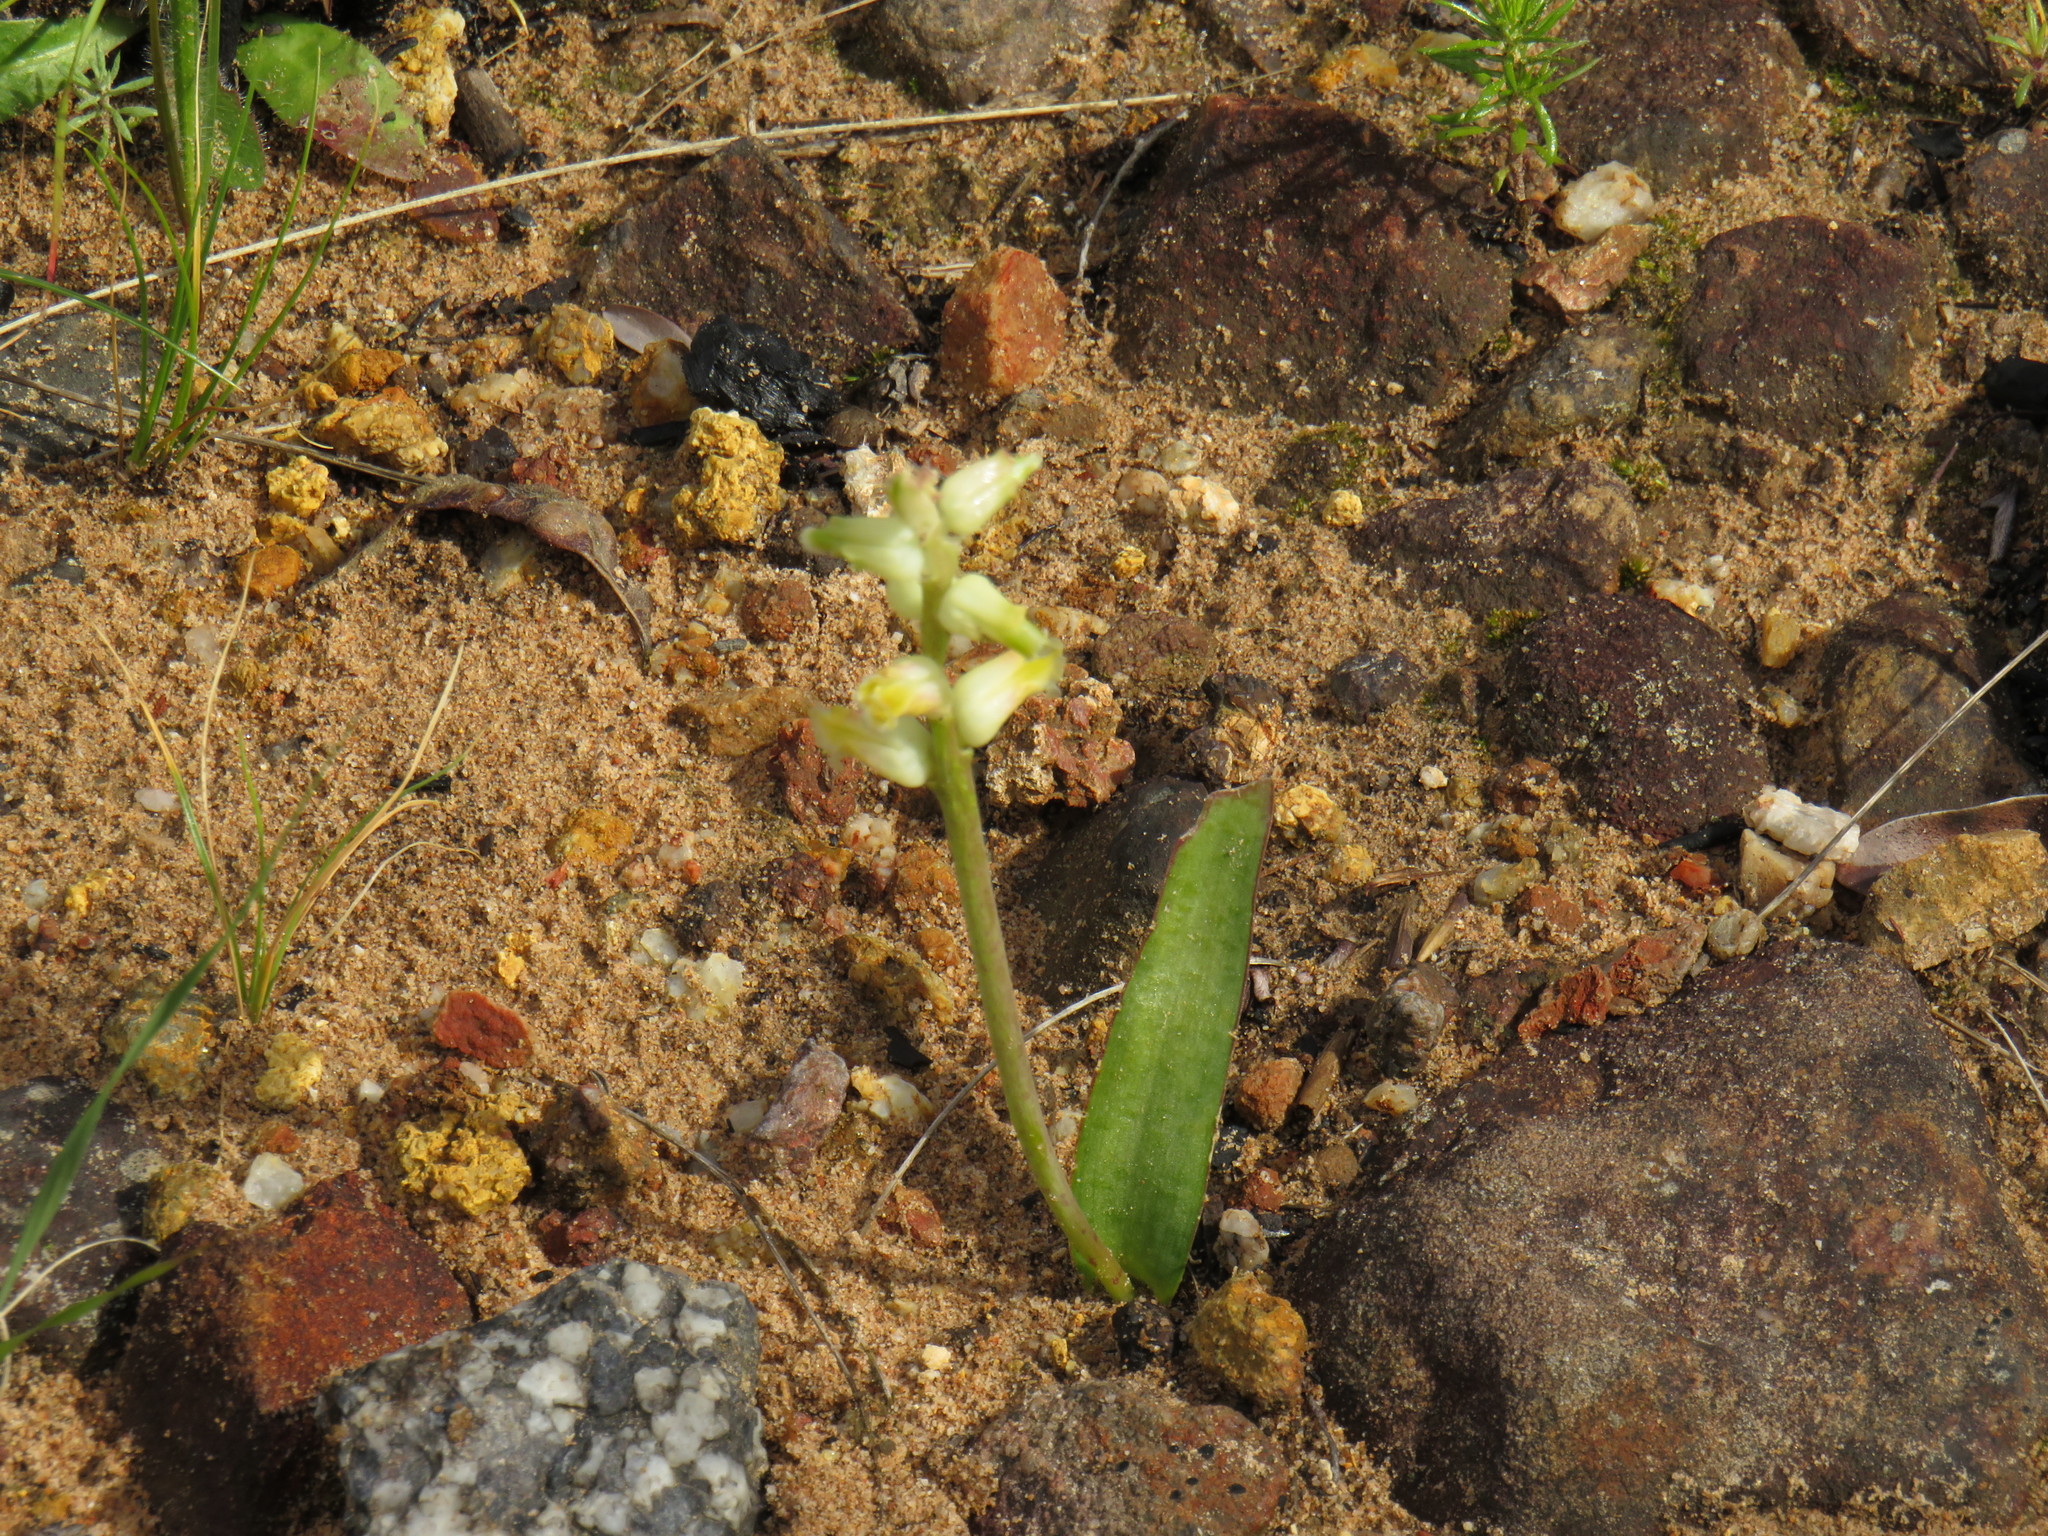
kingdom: Plantae
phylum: Tracheophyta
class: Liliopsida
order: Asparagales
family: Asparagaceae
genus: Lachenalia
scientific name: Lachenalia cernua
